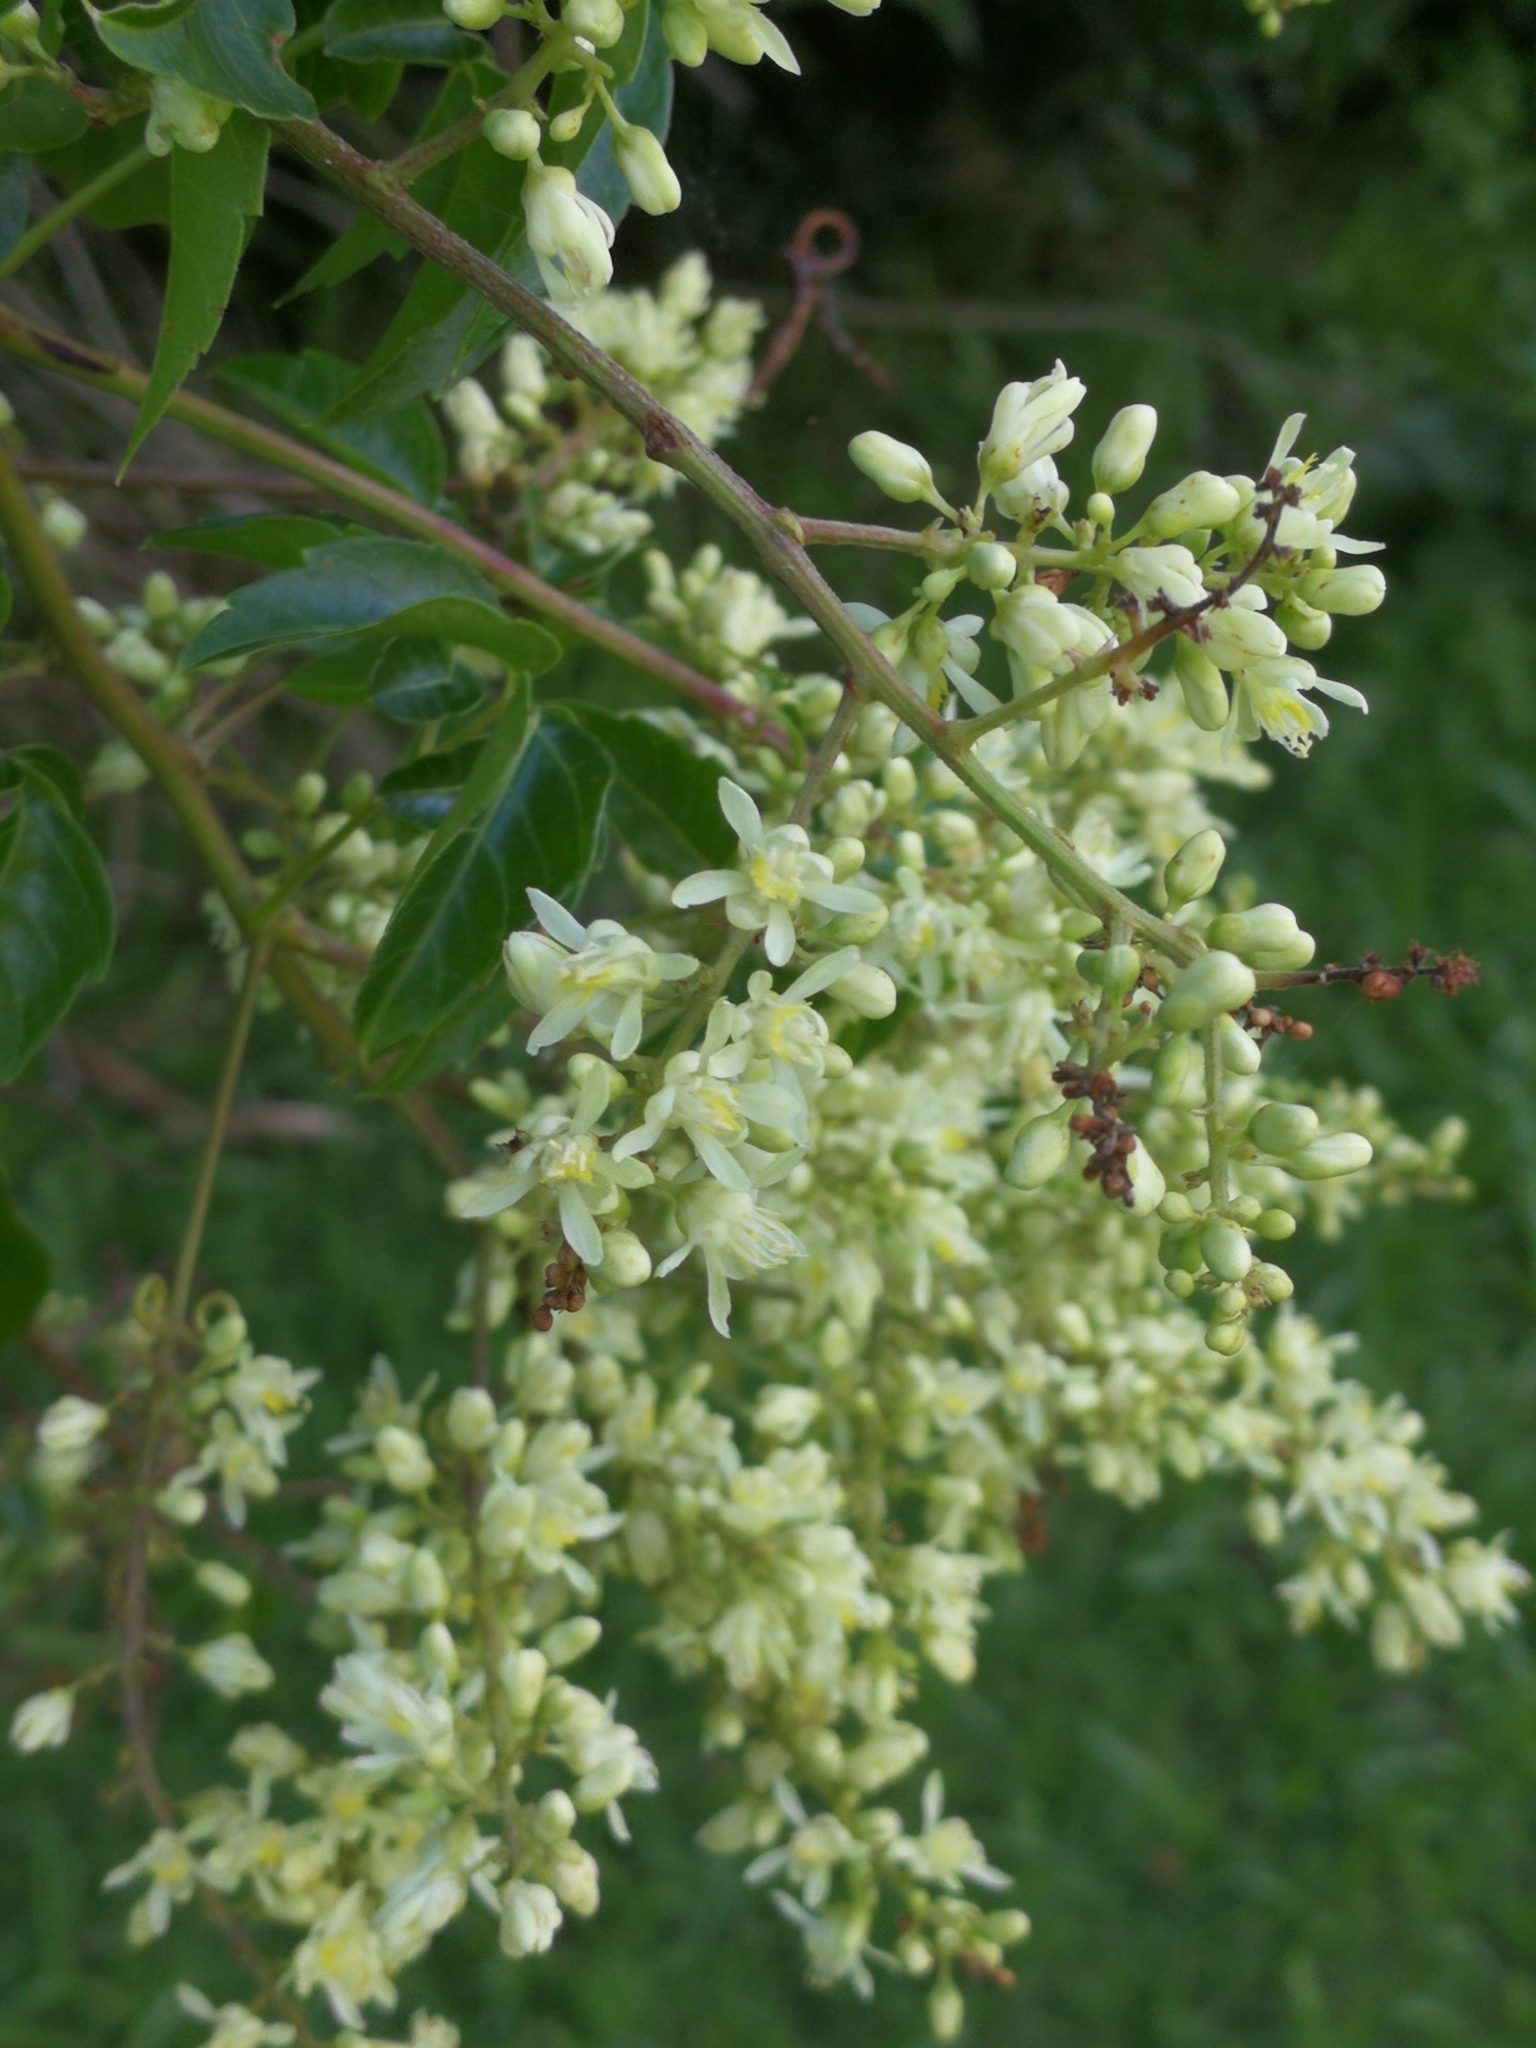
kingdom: Plantae
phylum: Tracheophyta
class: Magnoliopsida
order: Sapindales
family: Sapindaceae
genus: Serjania
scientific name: Serjania meridionalis
